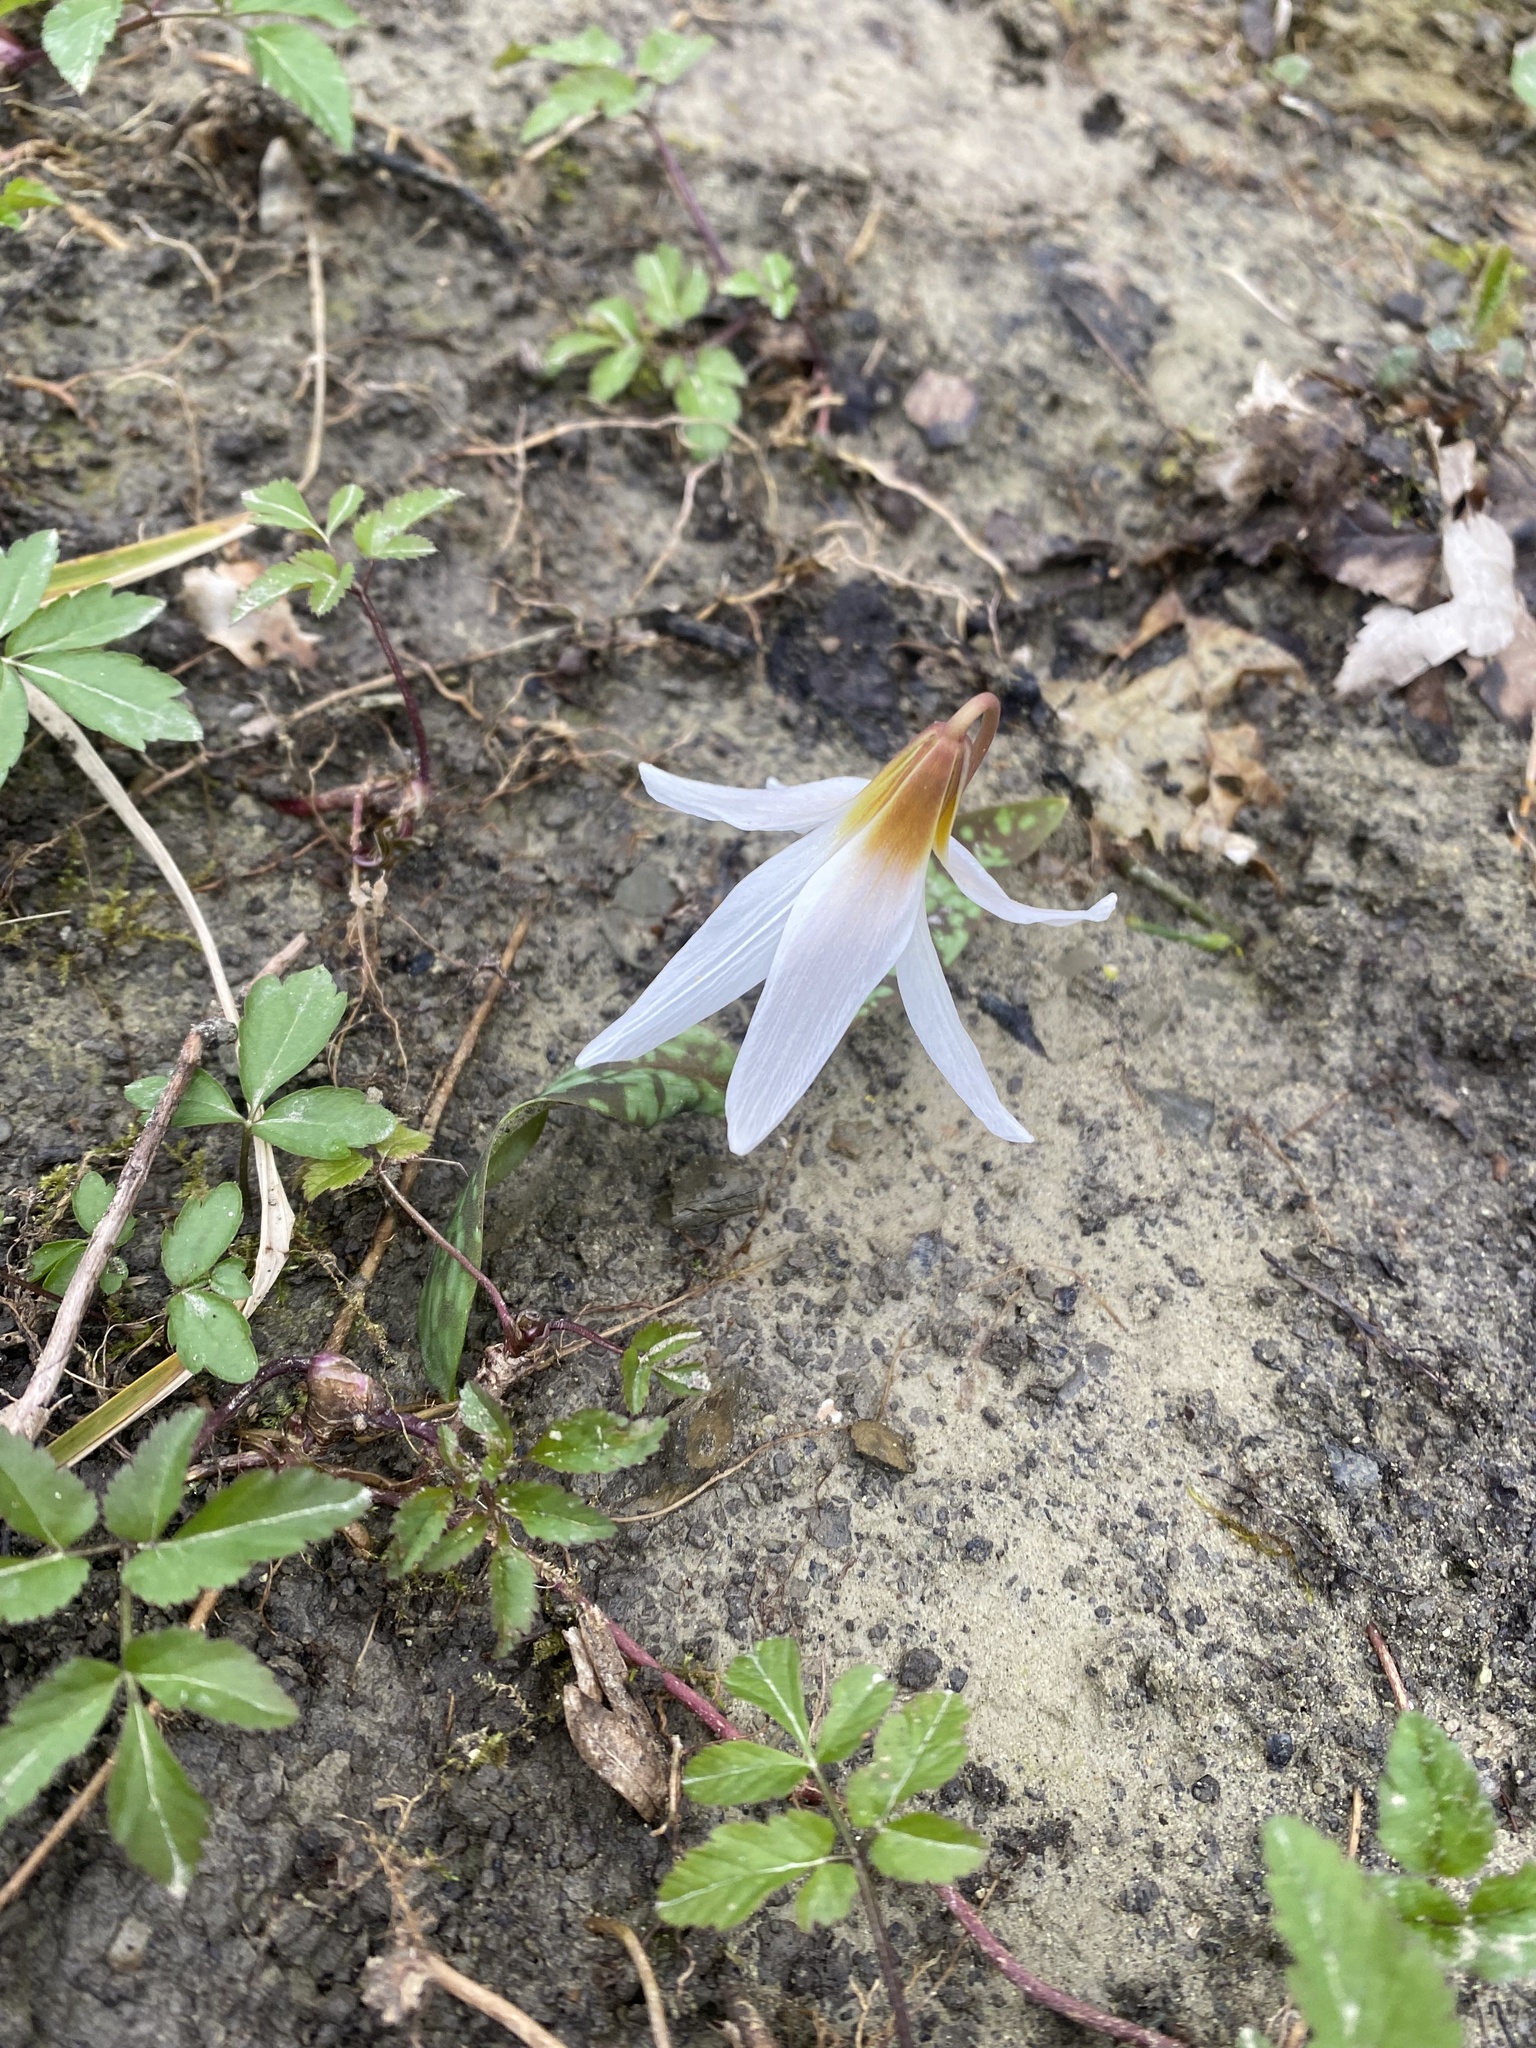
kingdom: Plantae
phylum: Tracheophyta
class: Liliopsida
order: Liliales
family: Liliaceae
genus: Erythronium
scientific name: Erythronium caucasicum
